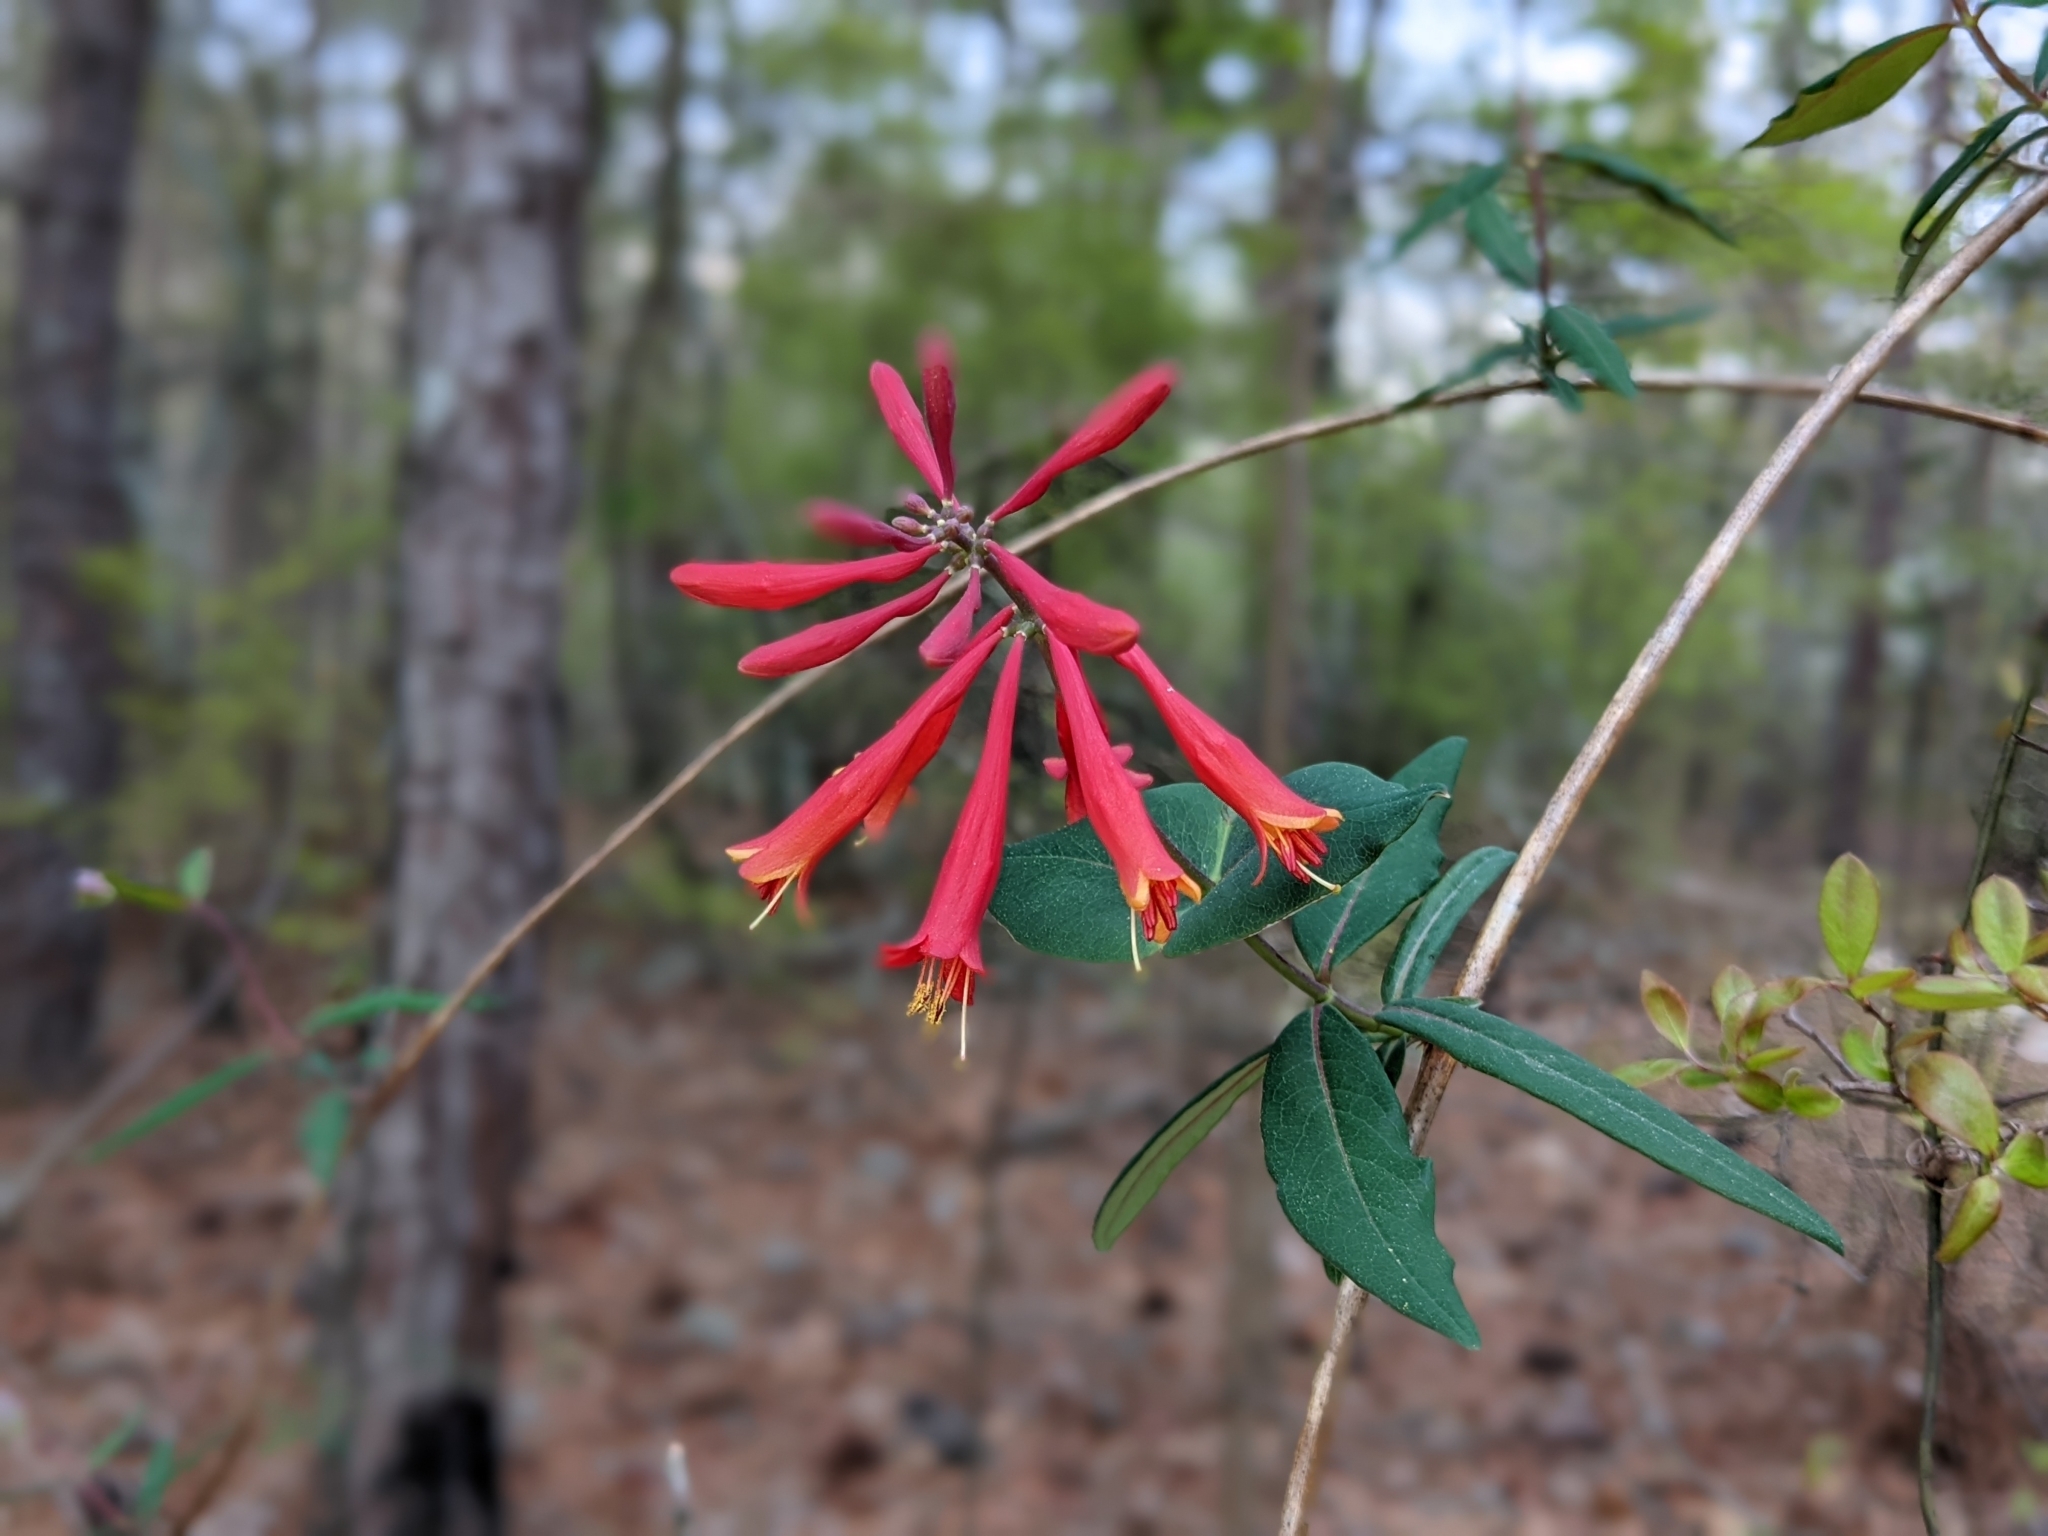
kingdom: Plantae
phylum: Tracheophyta
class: Magnoliopsida
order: Dipsacales
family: Caprifoliaceae
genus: Lonicera
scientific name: Lonicera sempervirens
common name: Coral honeysuckle
